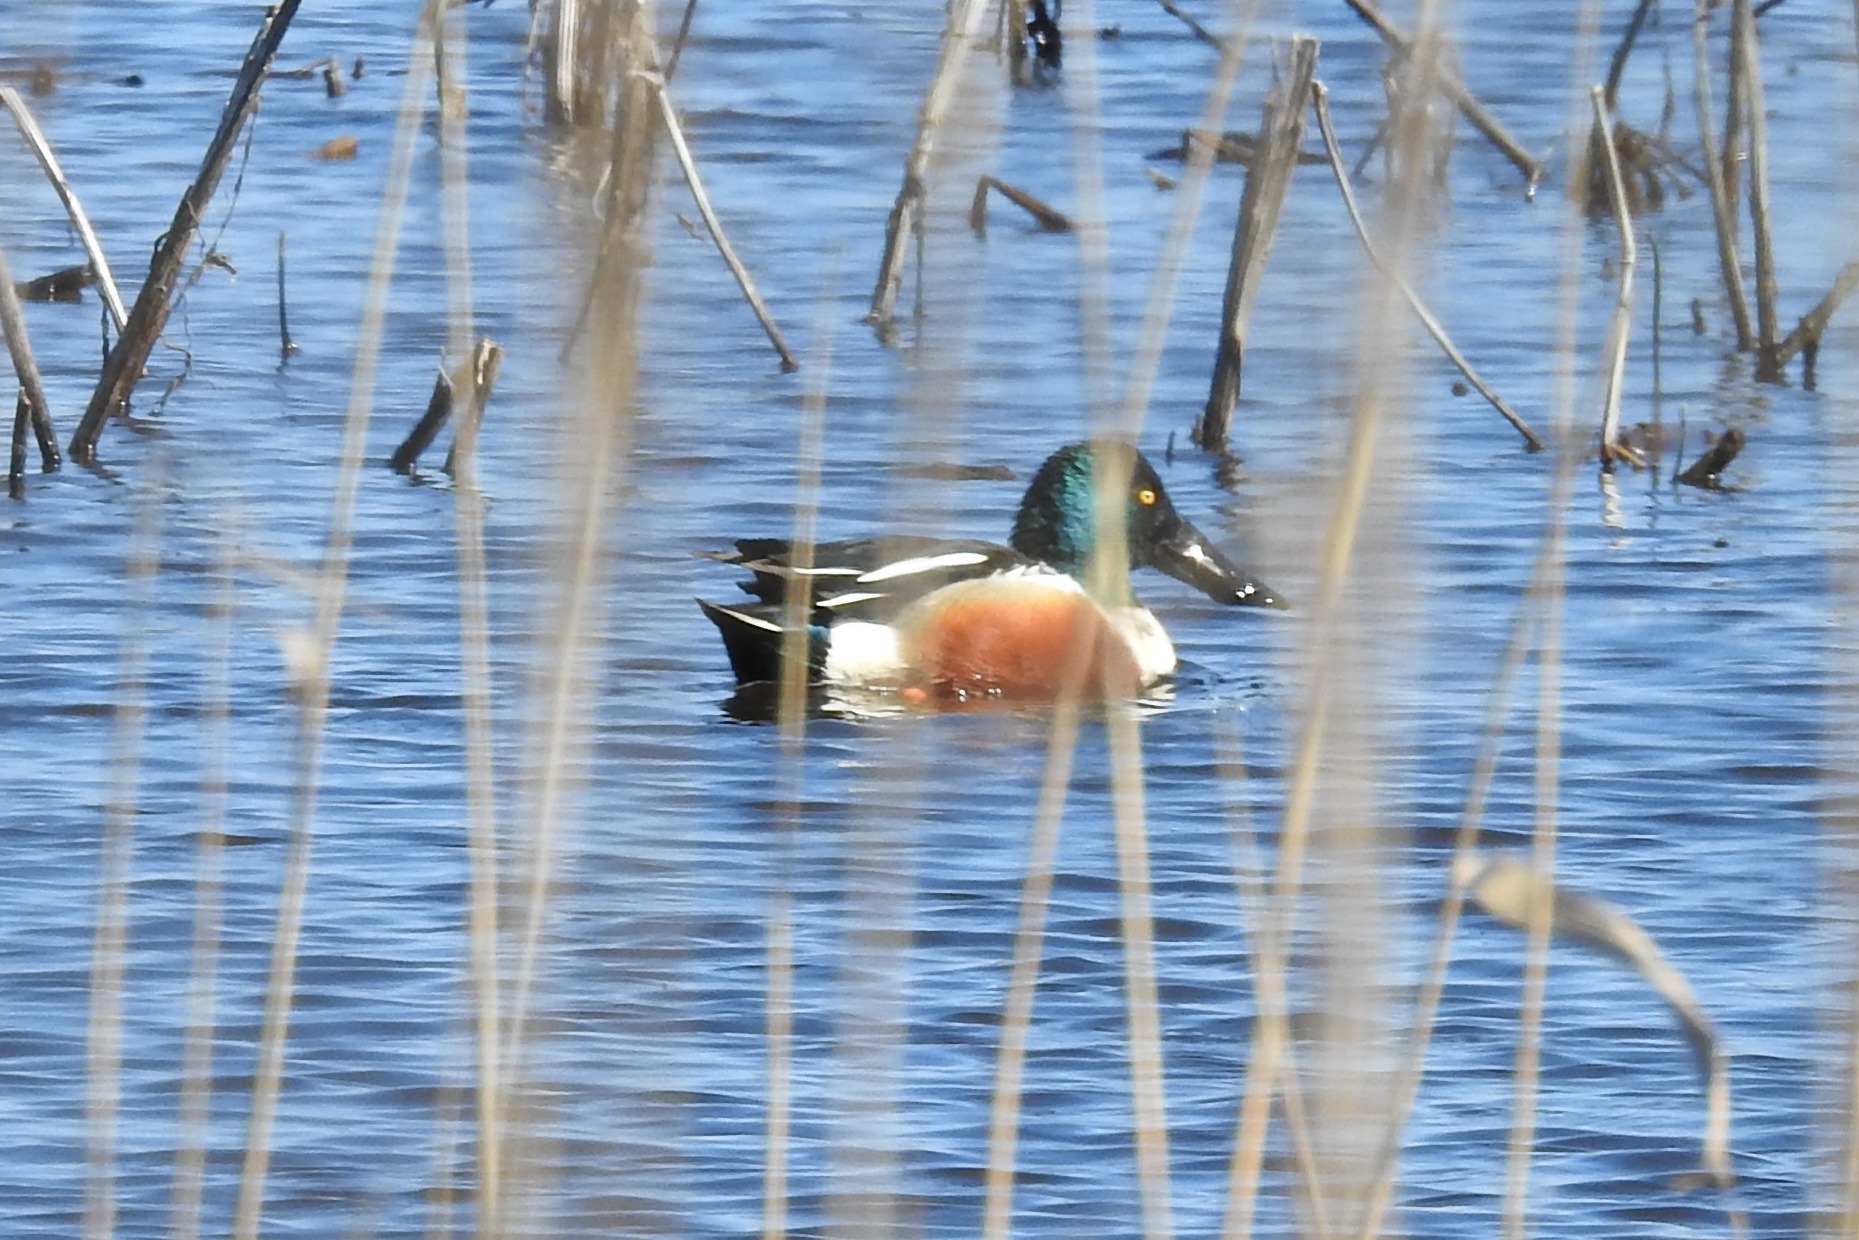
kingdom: Animalia
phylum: Chordata
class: Aves
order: Anseriformes
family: Anatidae
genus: Spatula
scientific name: Spatula clypeata
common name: Northern shoveler
